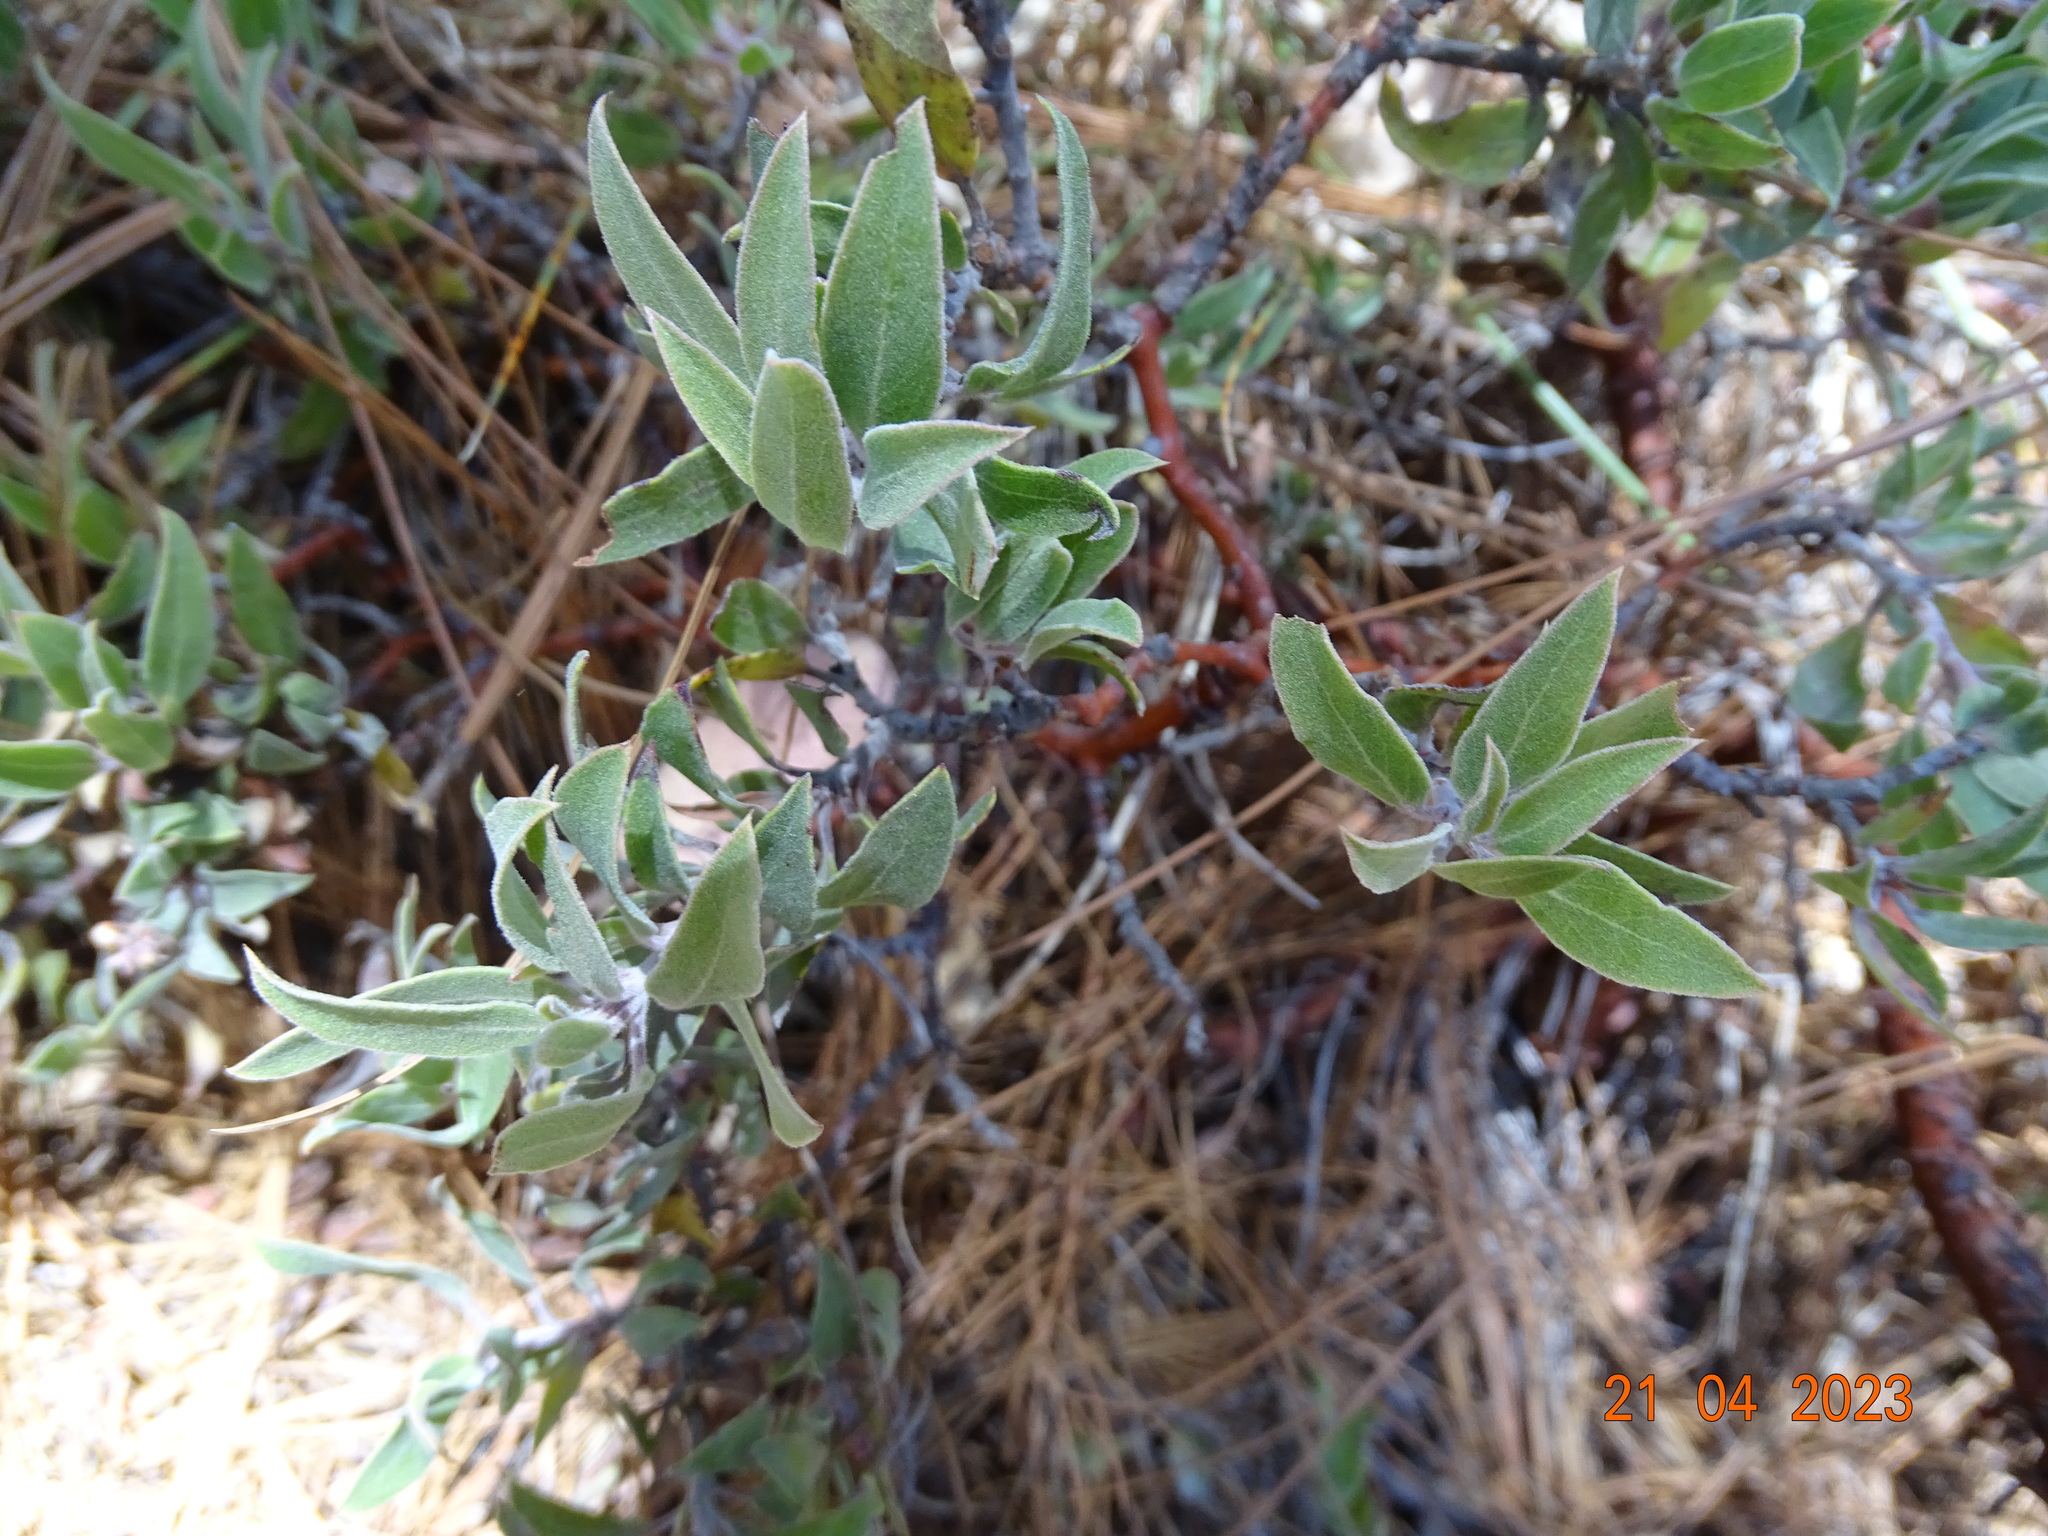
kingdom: Plantae
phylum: Tracheophyta
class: Magnoliopsida
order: Ericales
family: Ericaceae
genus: Arctostaphylos
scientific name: Arctostaphylos pungens
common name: Mexican manzanita
